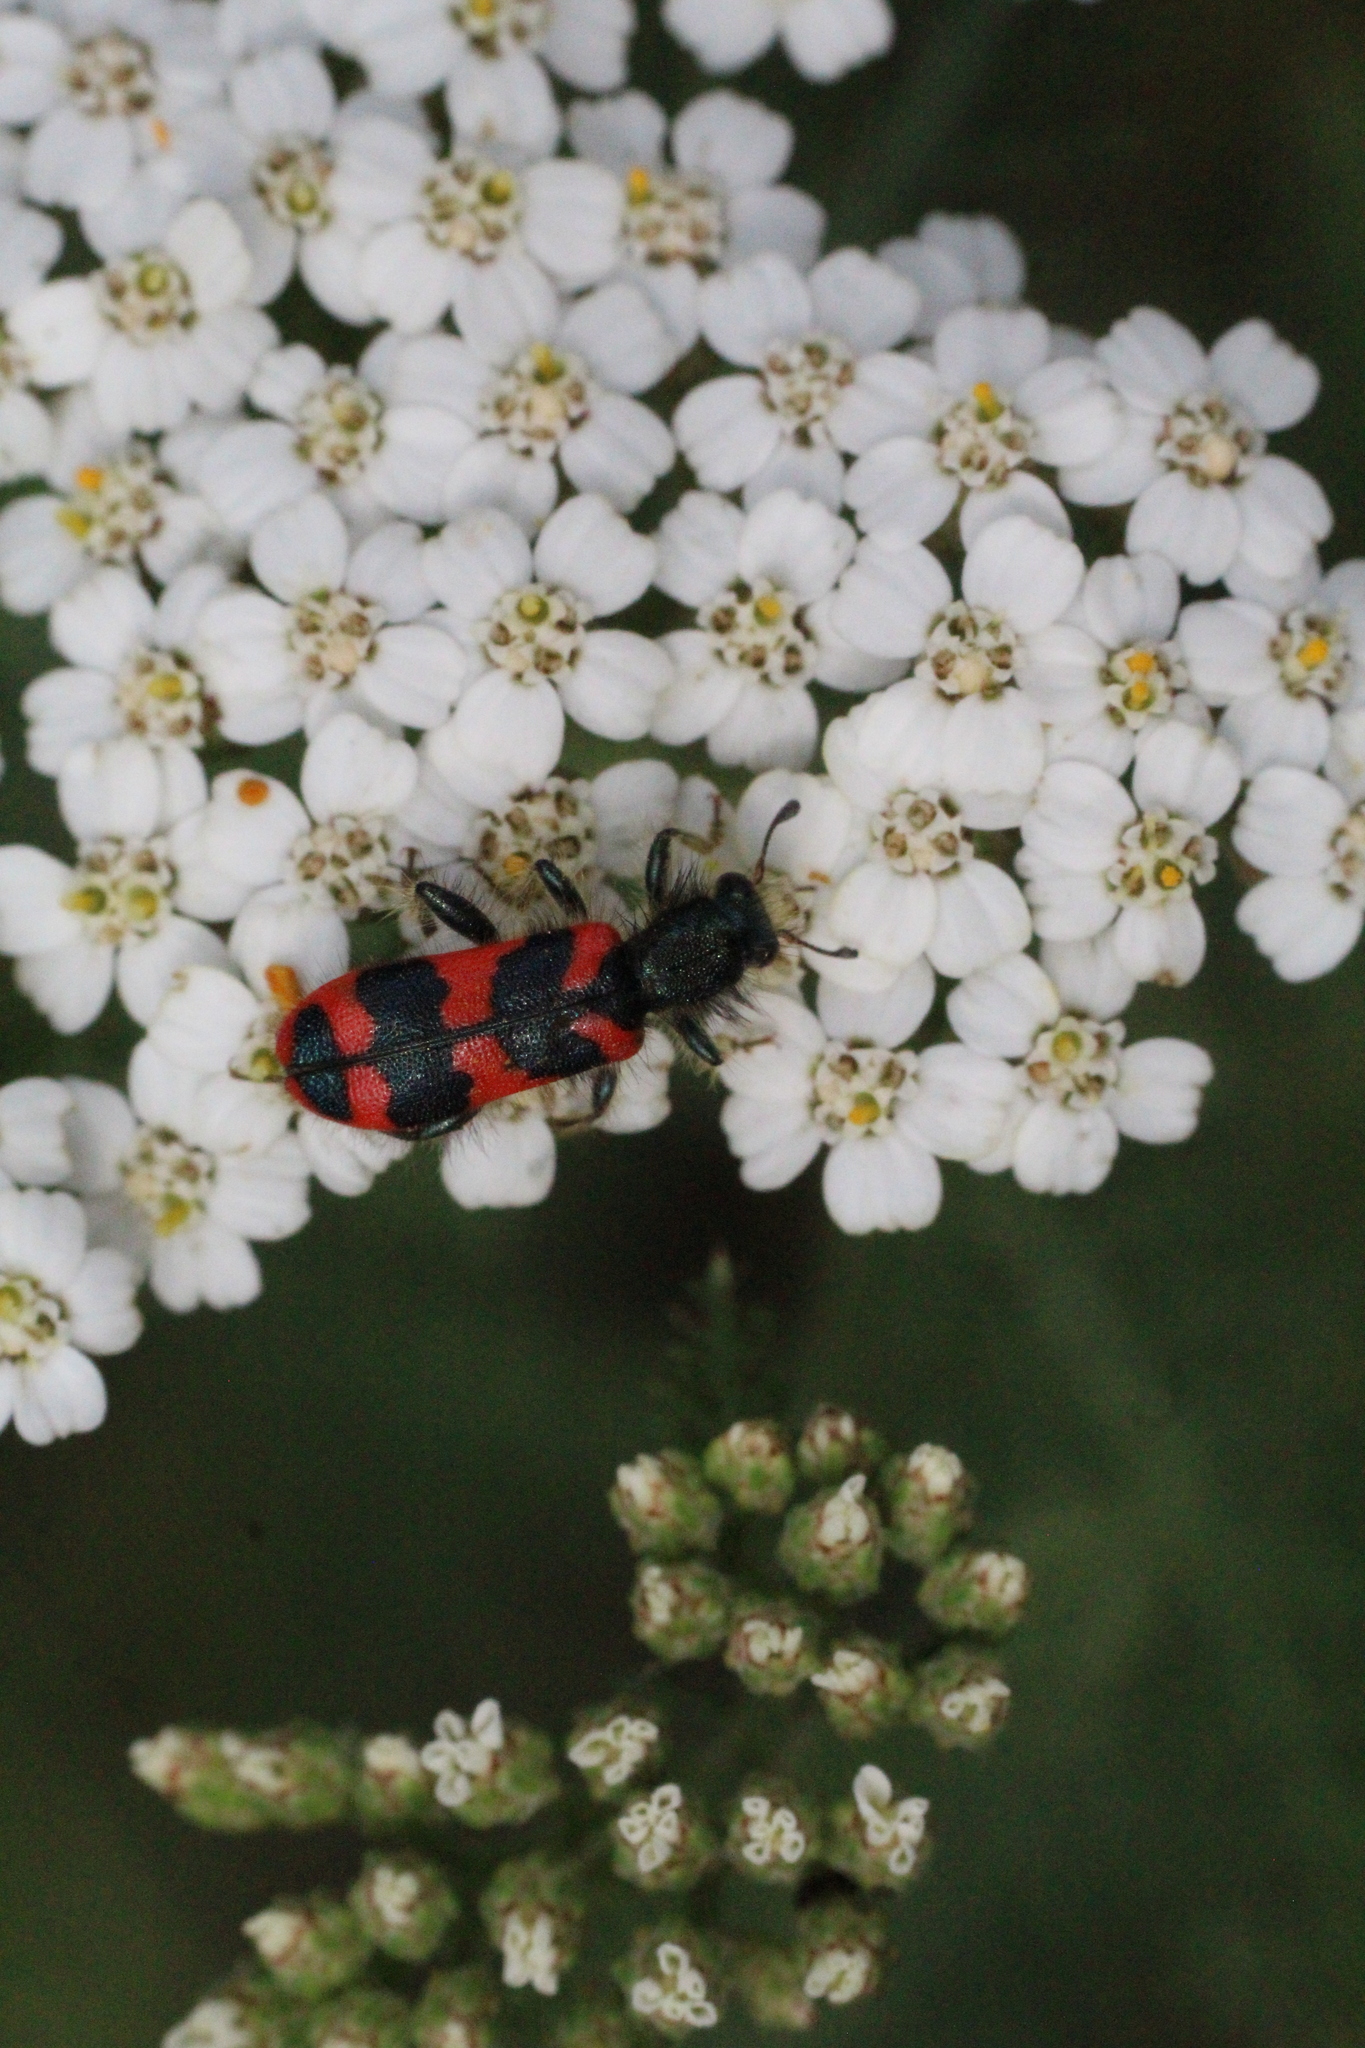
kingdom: Animalia
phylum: Arthropoda
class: Insecta
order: Coleoptera
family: Cleridae
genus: Trichodes
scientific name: Trichodes alvearius
